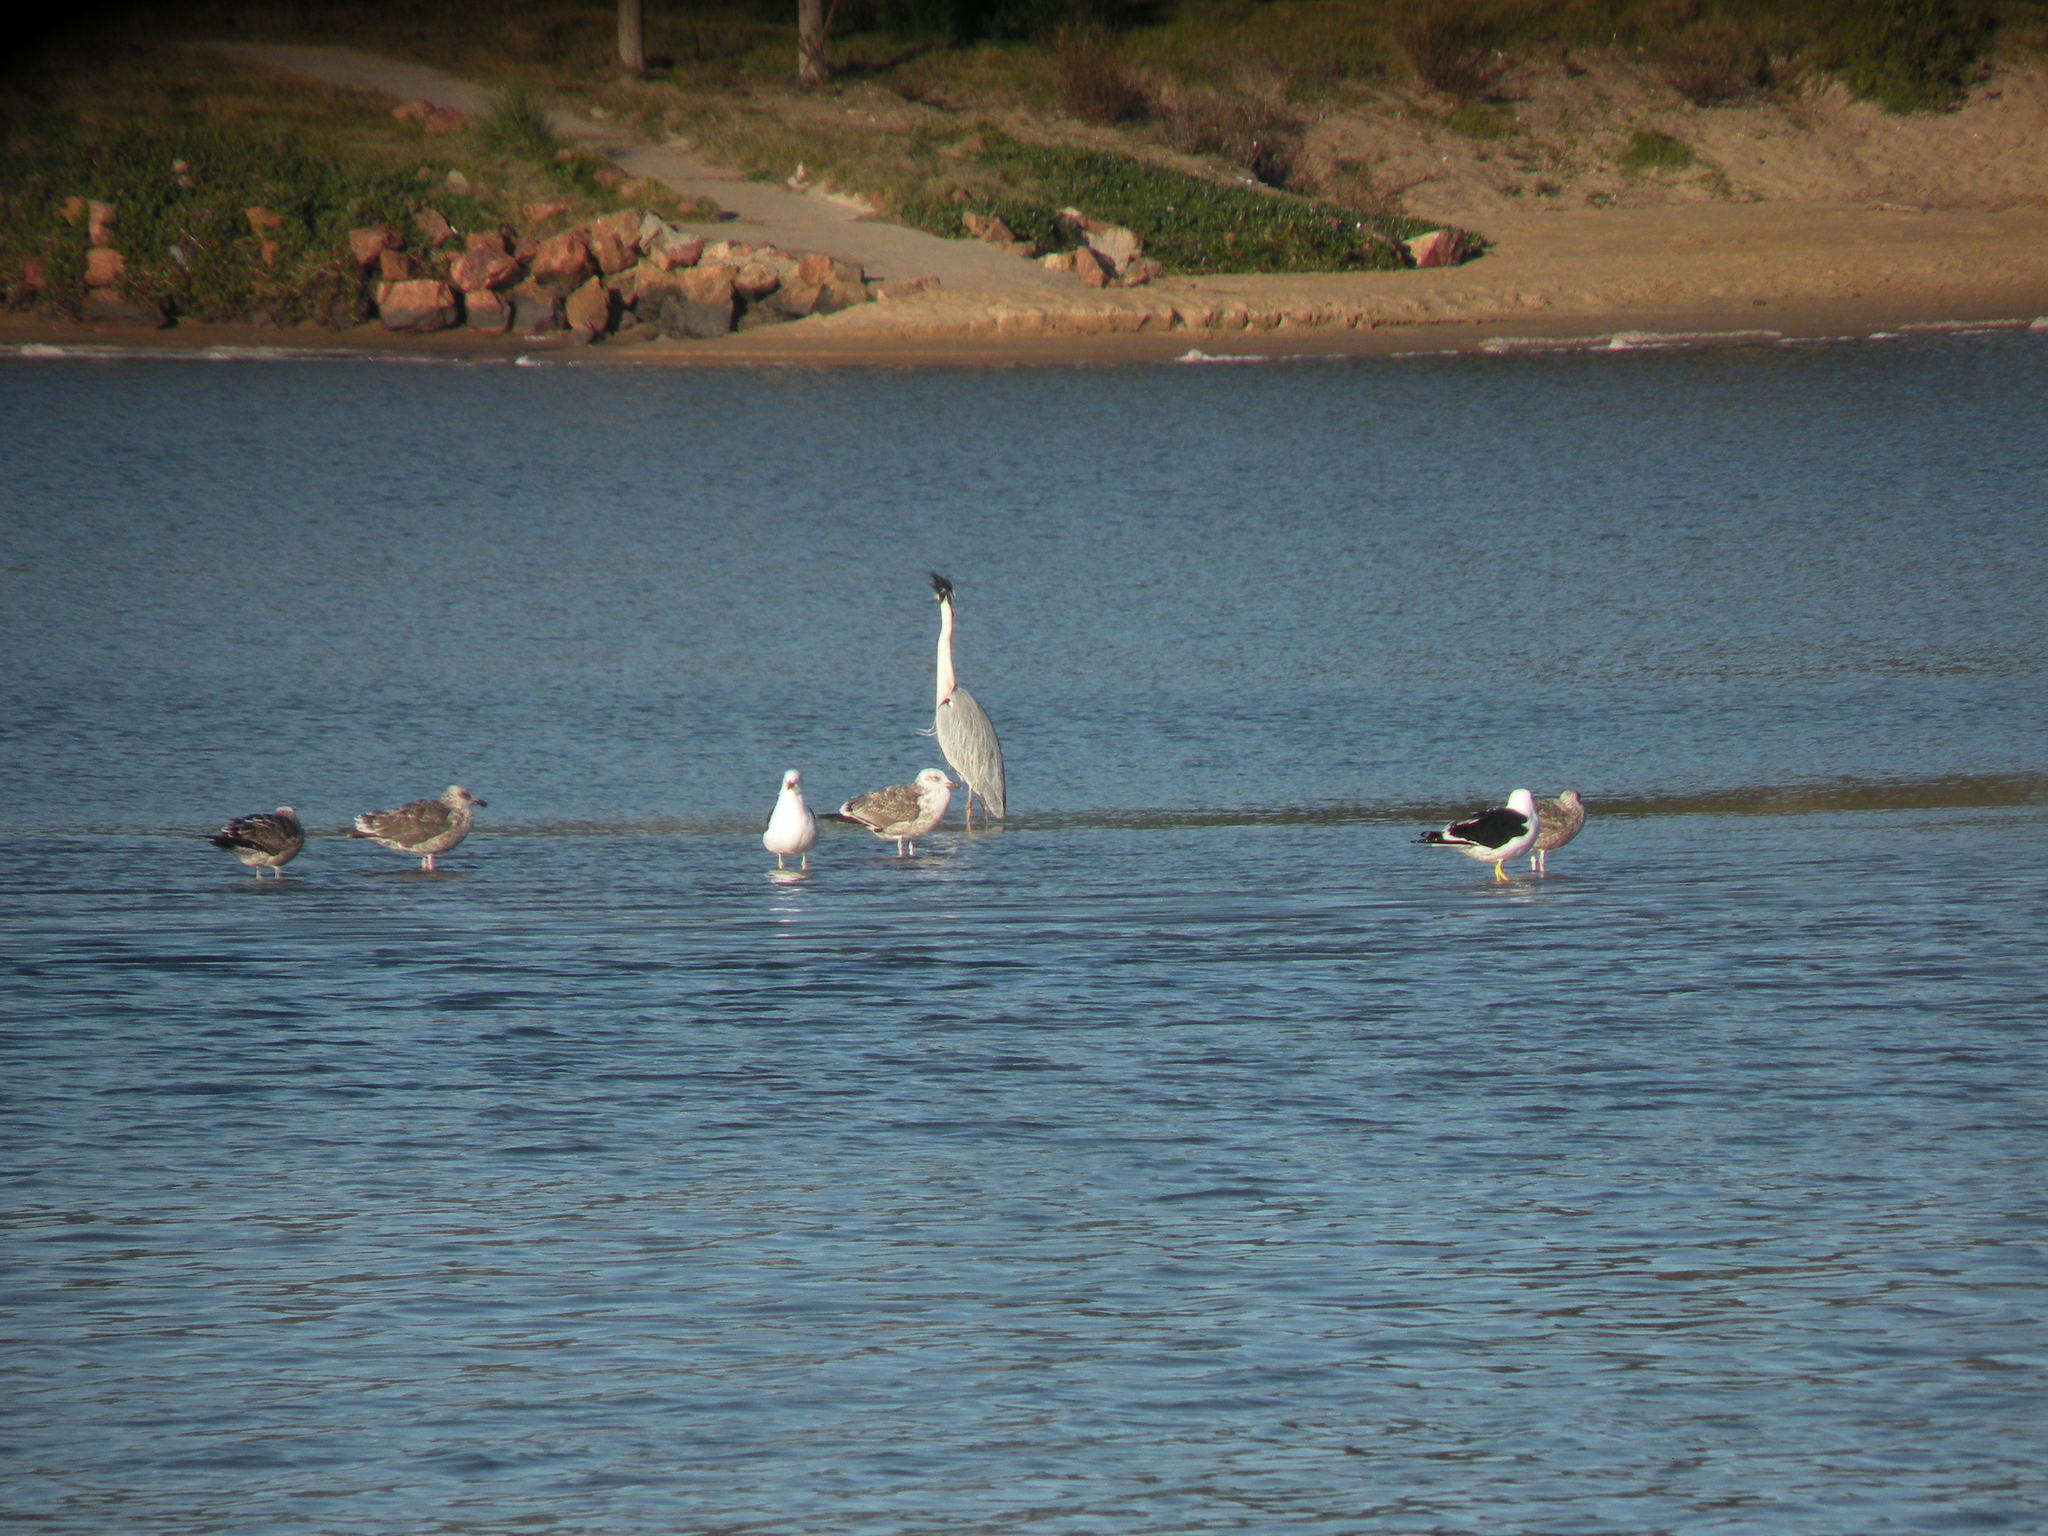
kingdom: Animalia
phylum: Chordata
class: Aves
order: Charadriiformes
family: Laridae
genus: Larus
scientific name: Larus dominicanus
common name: Kelp gull
